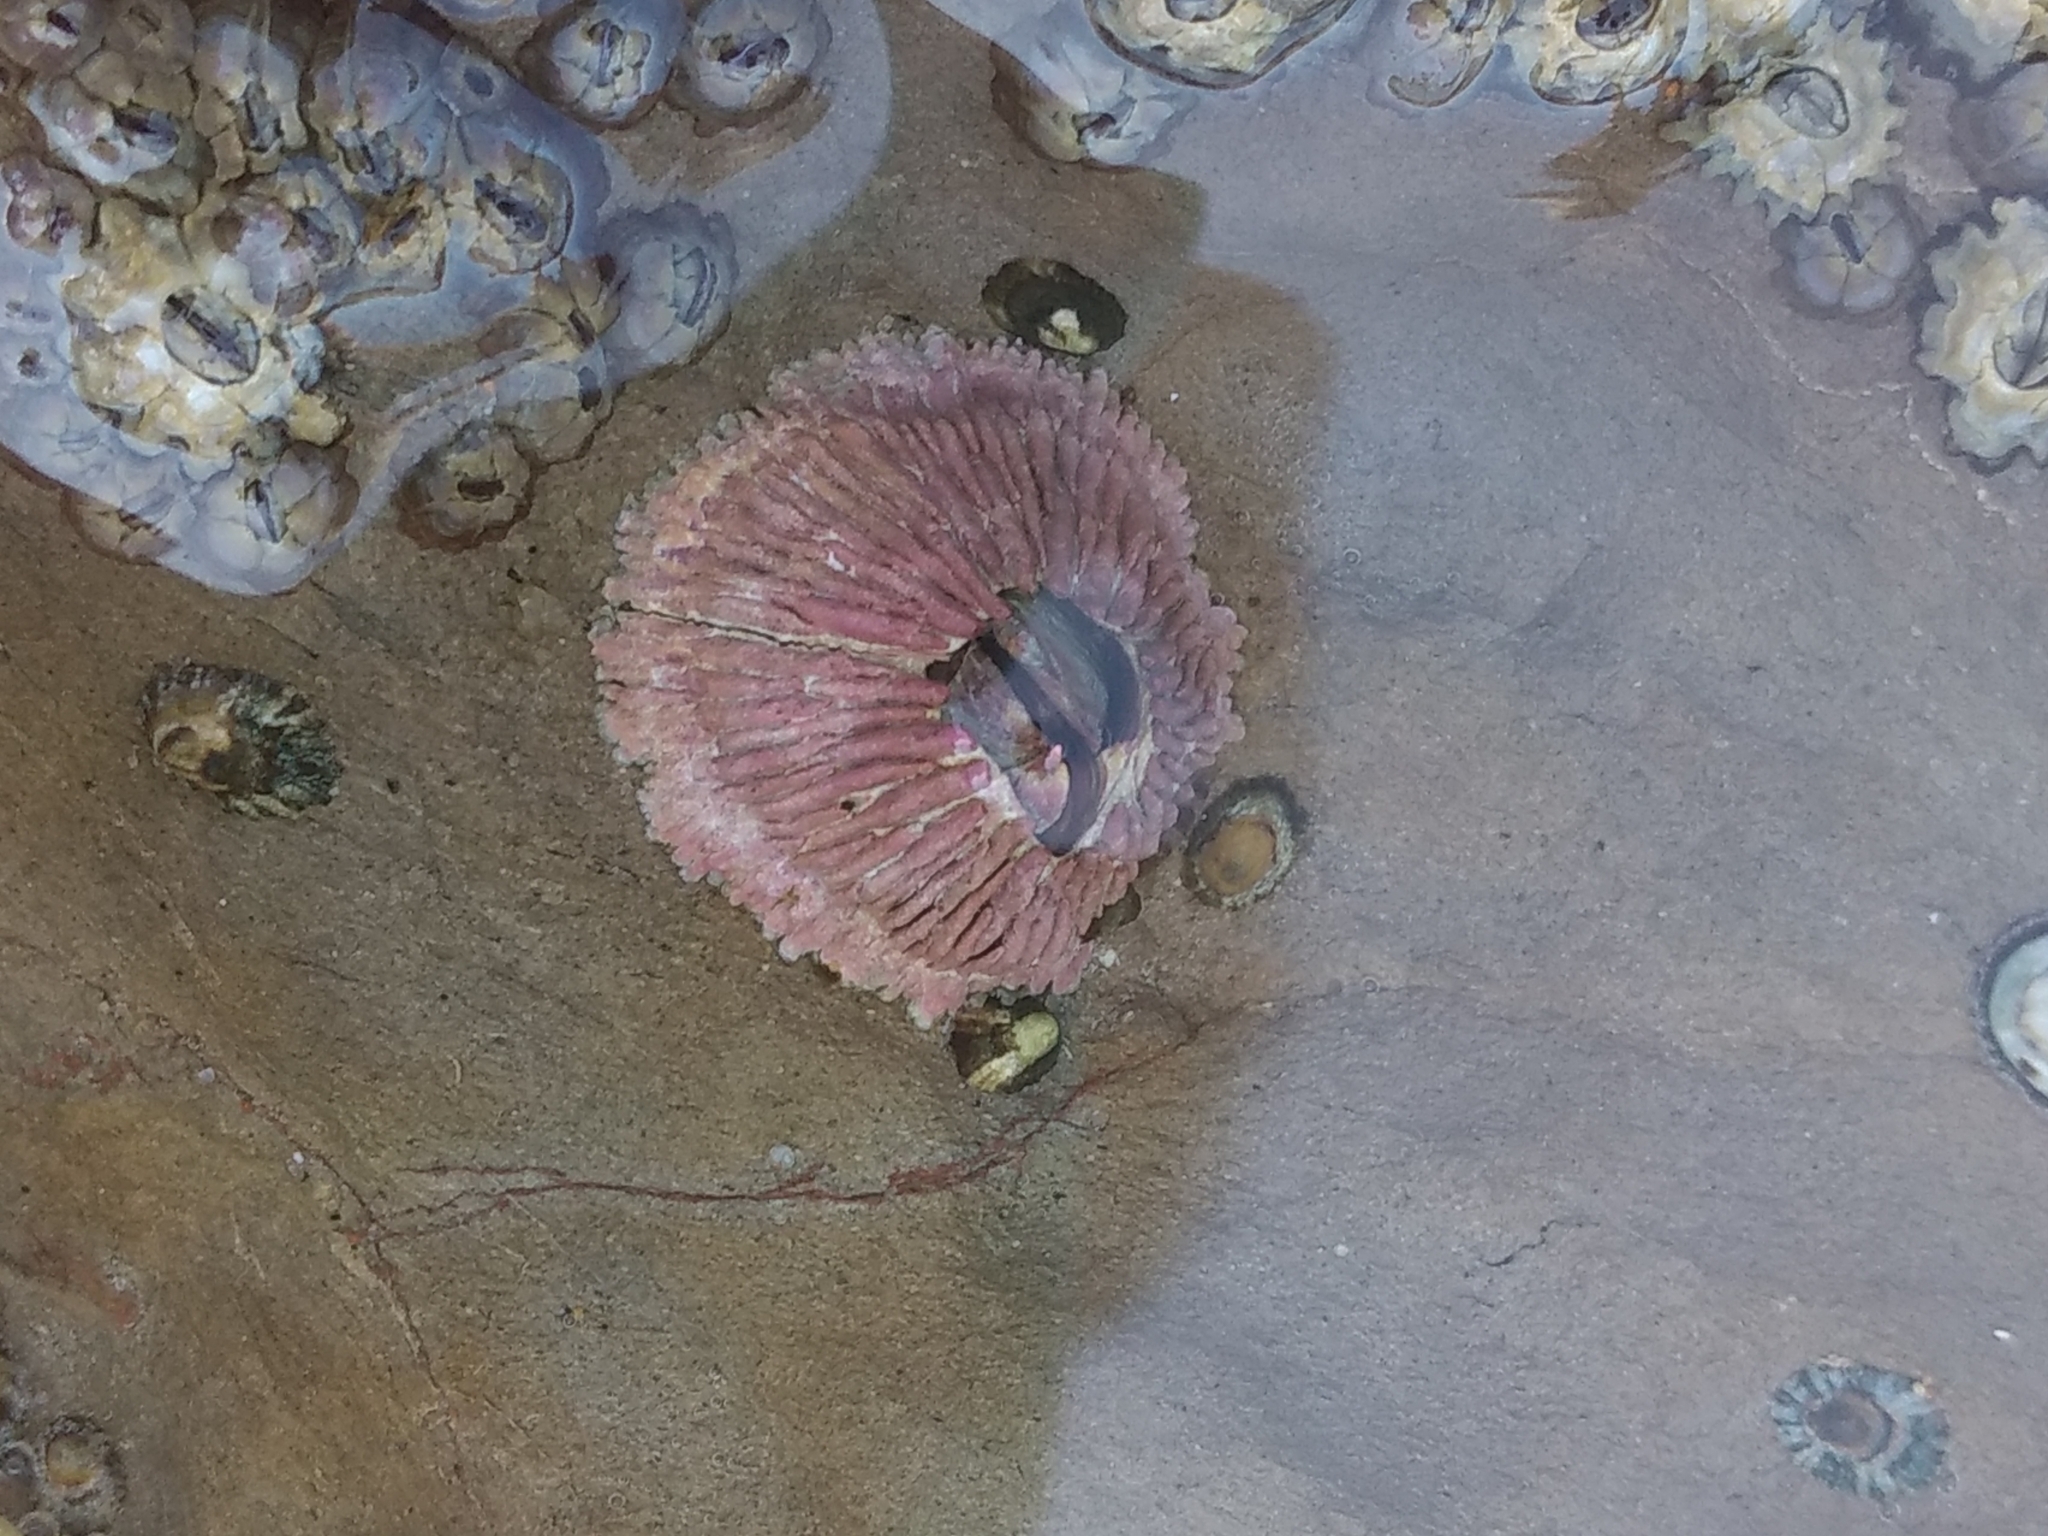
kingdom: Animalia
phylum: Arthropoda
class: Maxillopoda
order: Sessilia
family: Tetraclitidae
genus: Tetraclita
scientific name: Tetraclita rubescens
